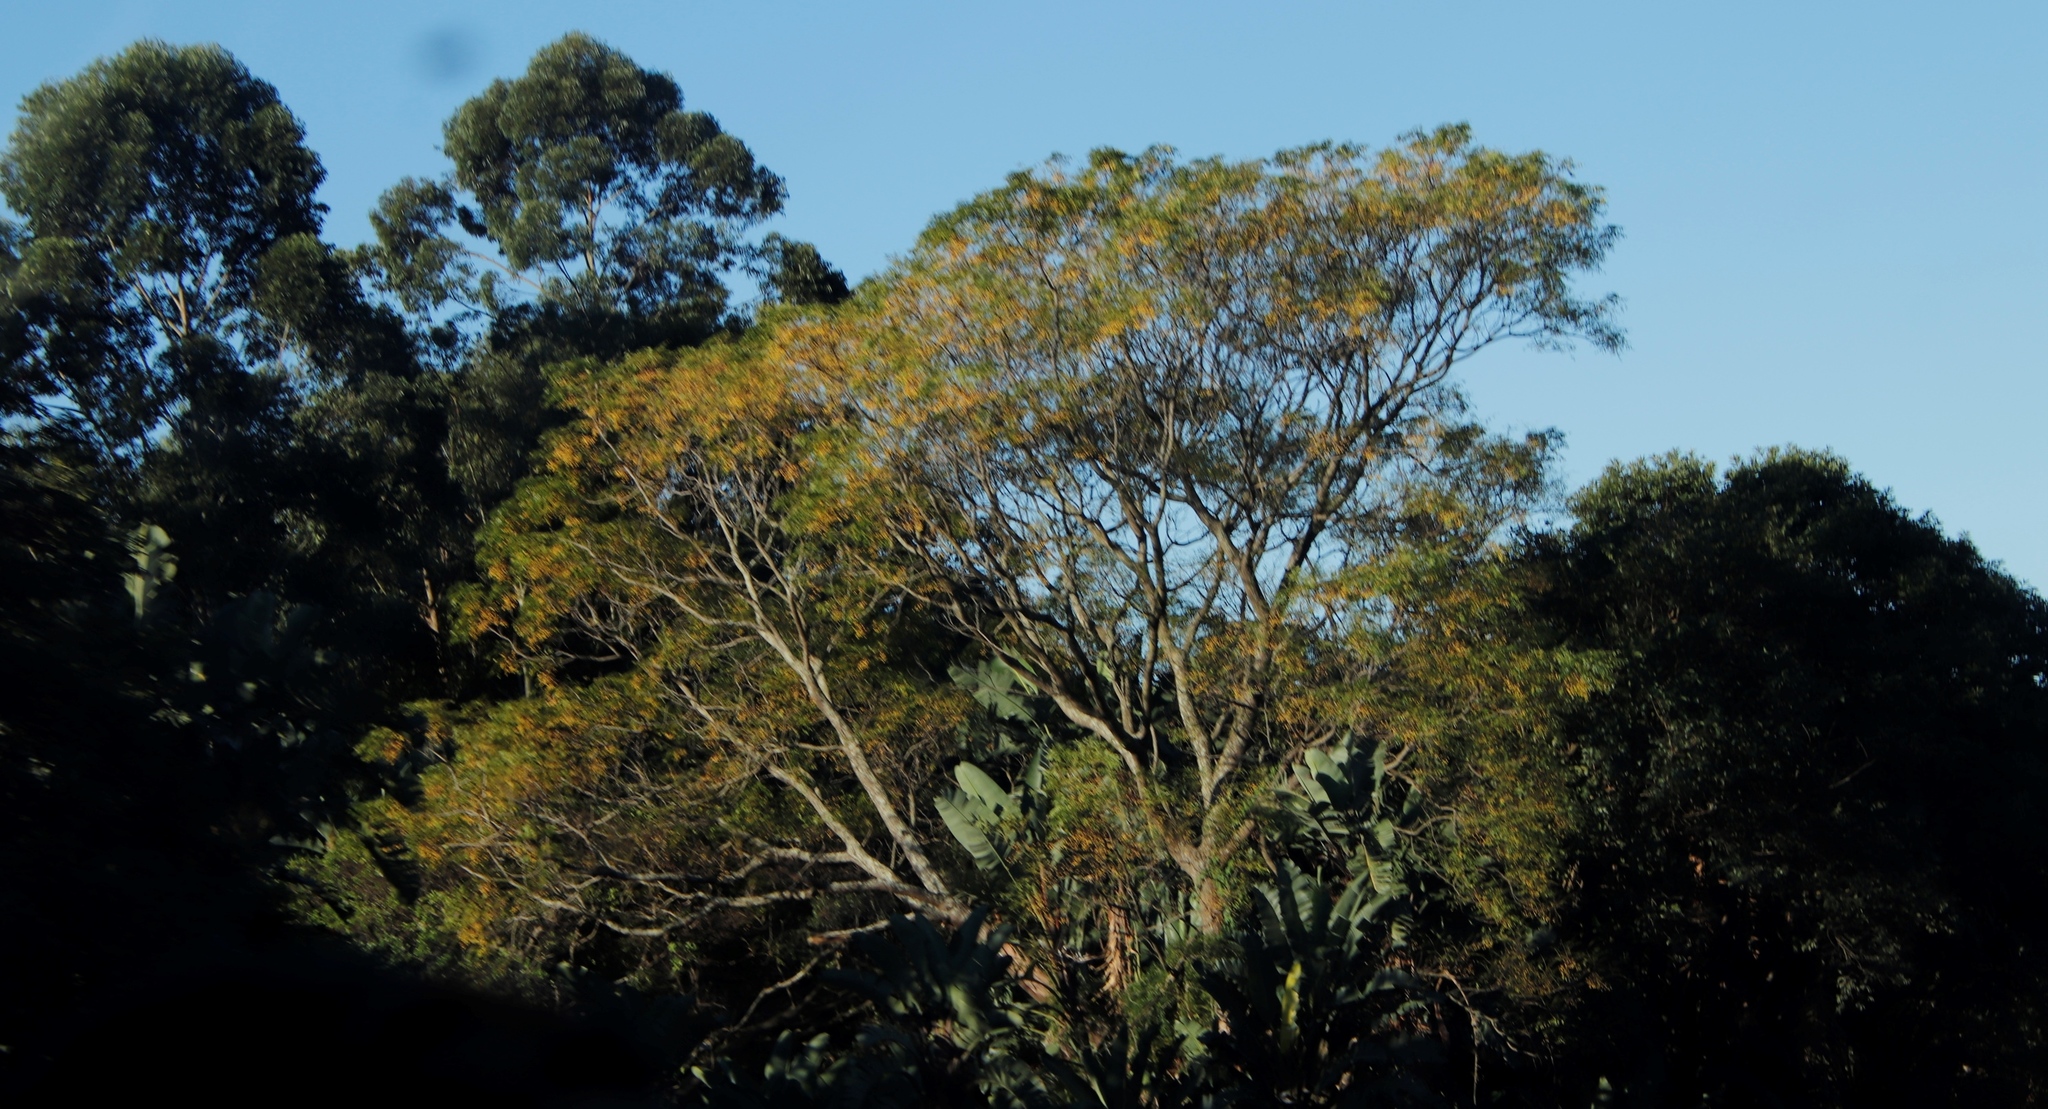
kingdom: Plantae
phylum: Tracheophyta
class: Magnoliopsida
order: Sapindales
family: Meliaceae
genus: Melia
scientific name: Melia azedarach
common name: Chinaberrytree
